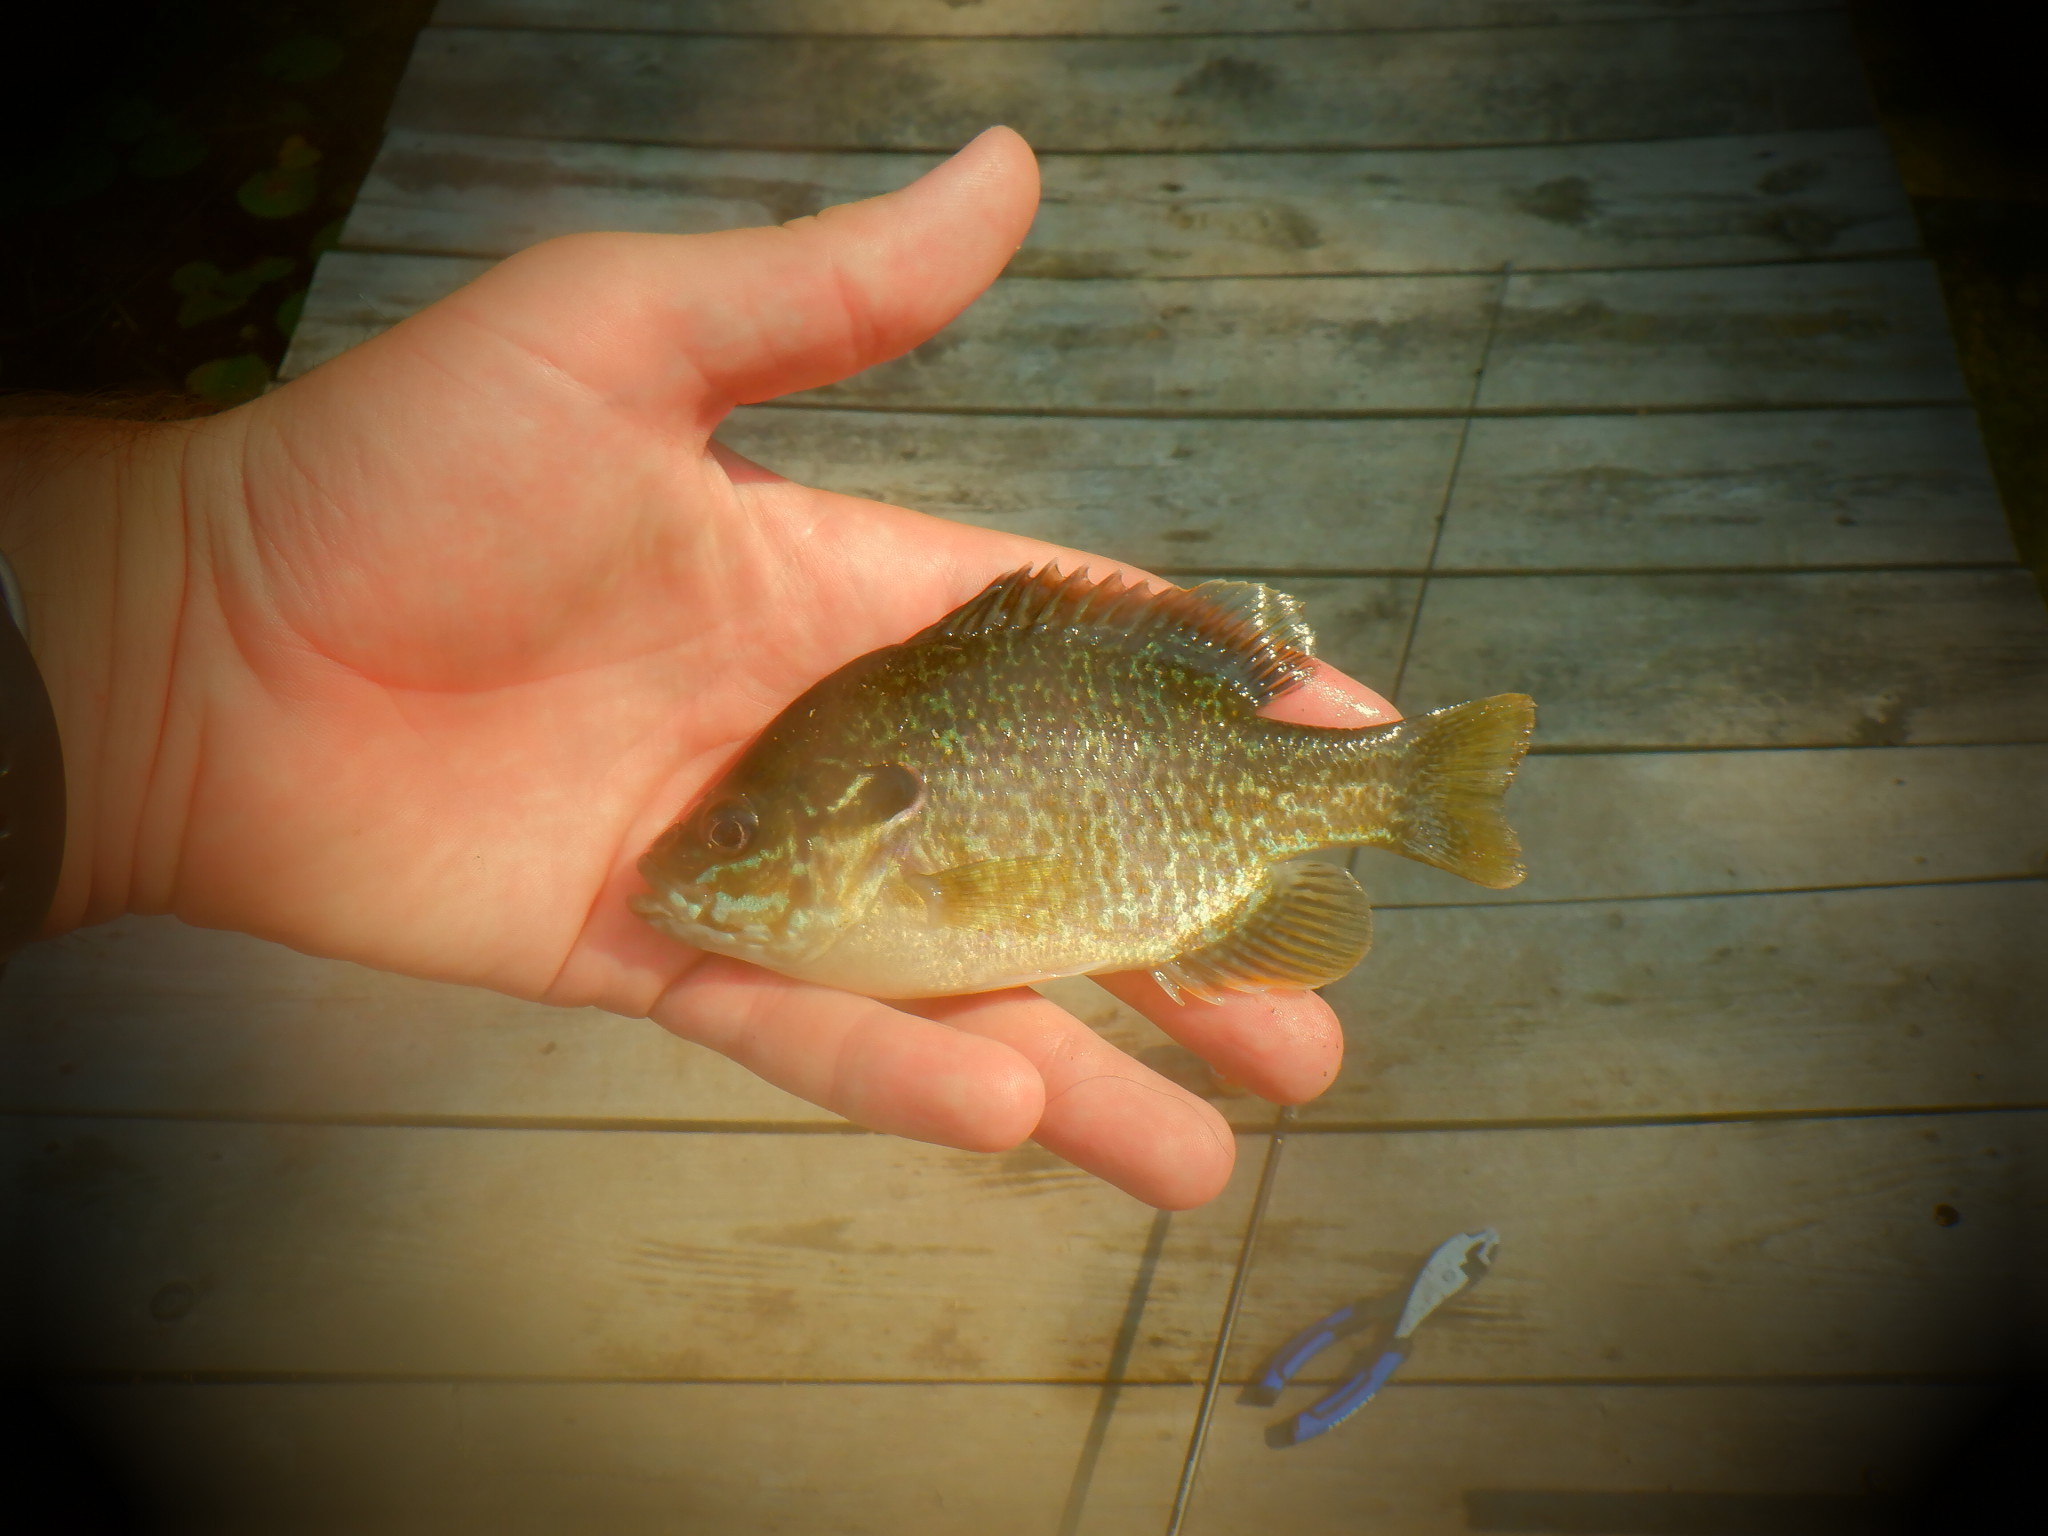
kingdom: Animalia
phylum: Chordata
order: Perciformes
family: Centrarchidae
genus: Lepomis
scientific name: Lepomis cyanellus
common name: Green sunfish
